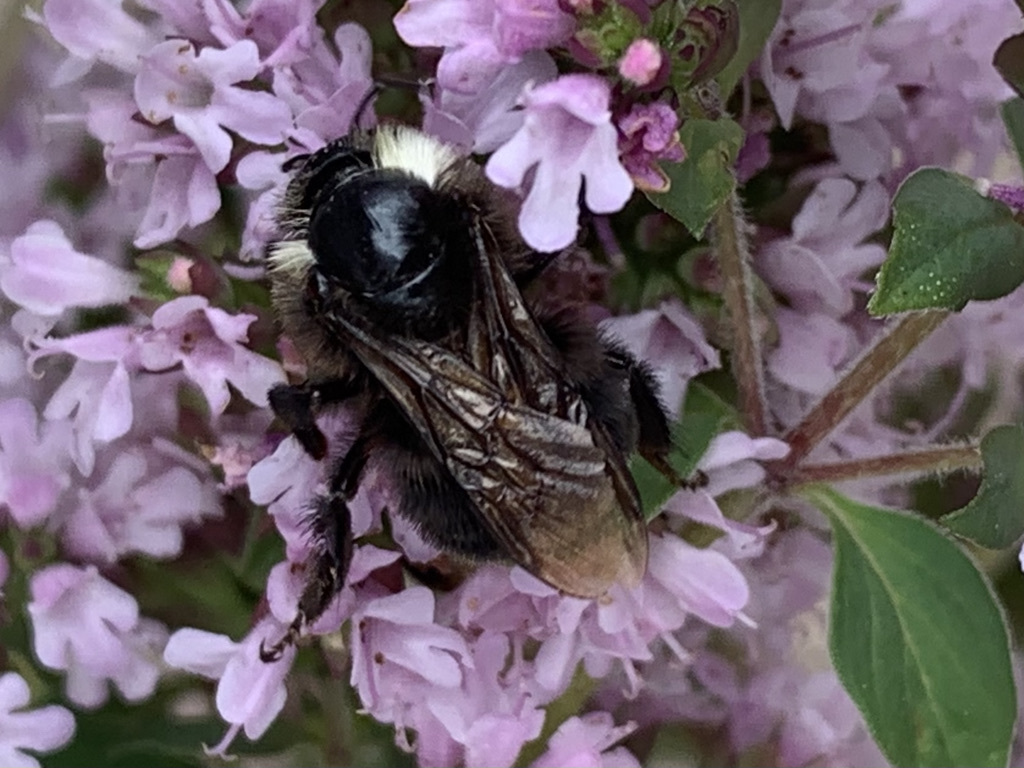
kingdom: Animalia
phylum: Arthropoda
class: Insecta
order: Hymenoptera
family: Apidae
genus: Bombus
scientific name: Bombus vosnesenskii
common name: Vosnesensky bumble bee
